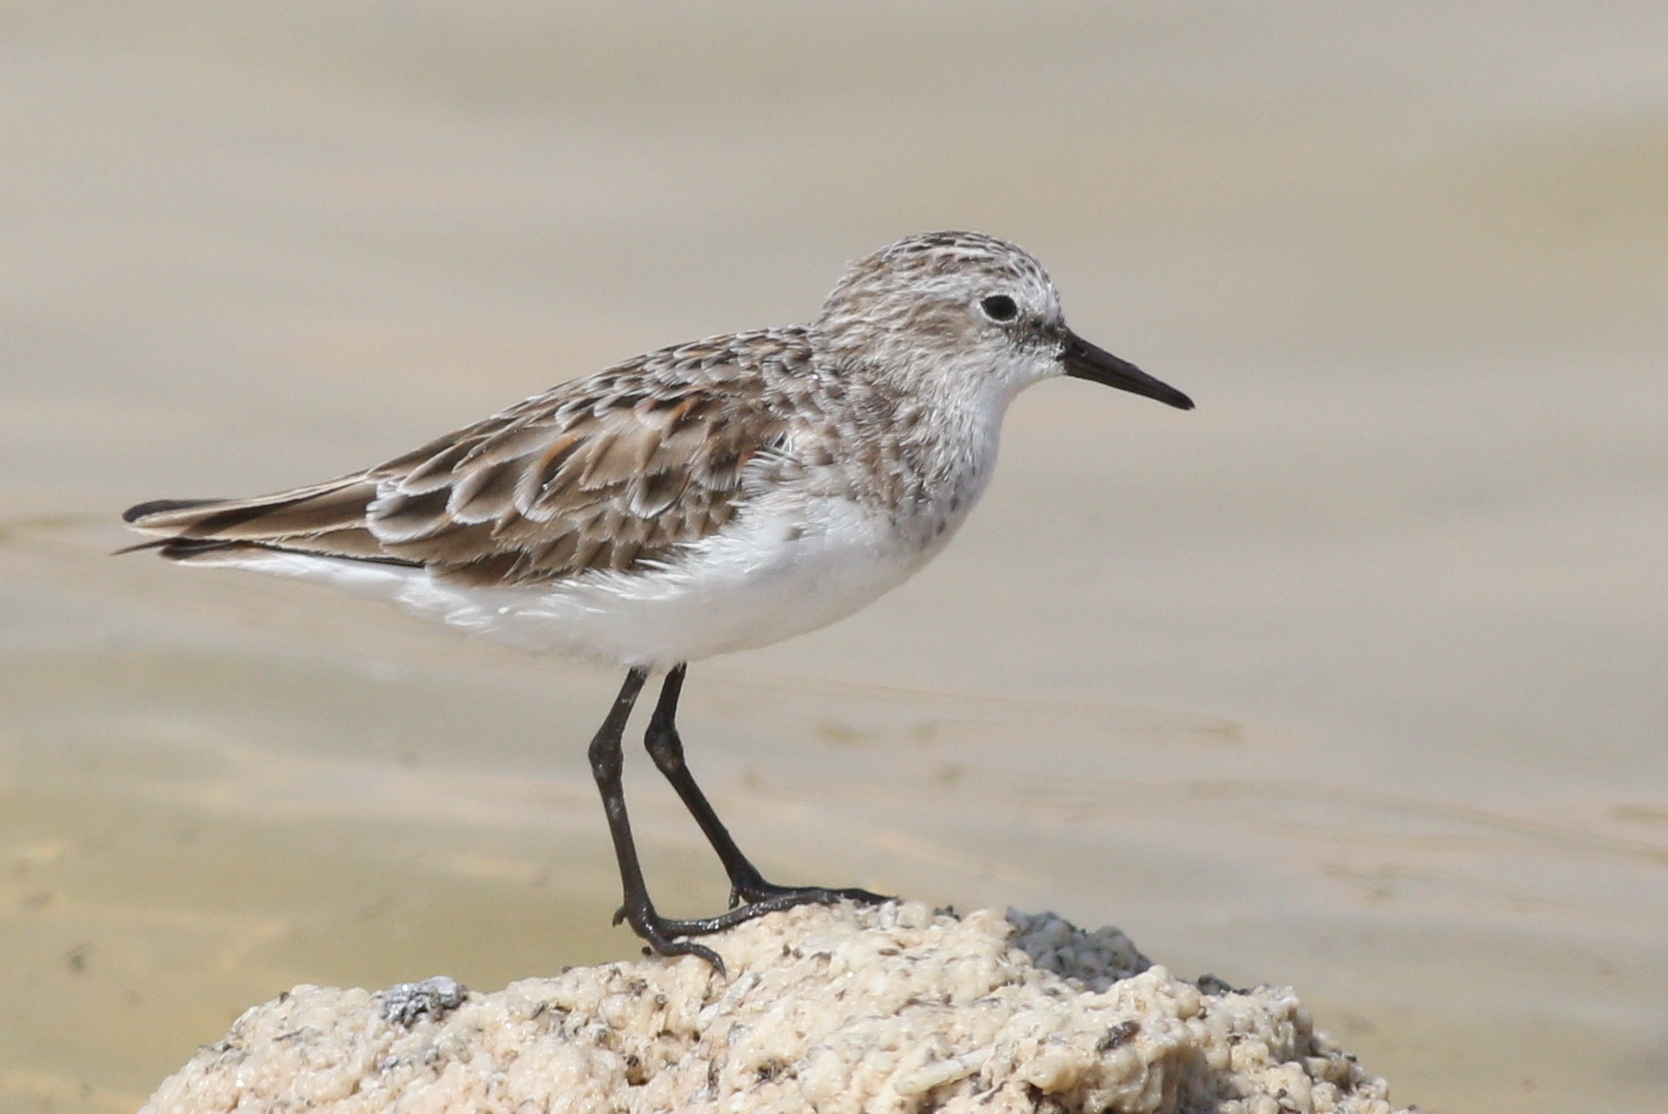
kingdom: Animalia
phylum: Chordata
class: Aves
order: Charadriiformes
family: Scolopacidae
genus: Calidris
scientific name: Calidris minuta
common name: Little stint
